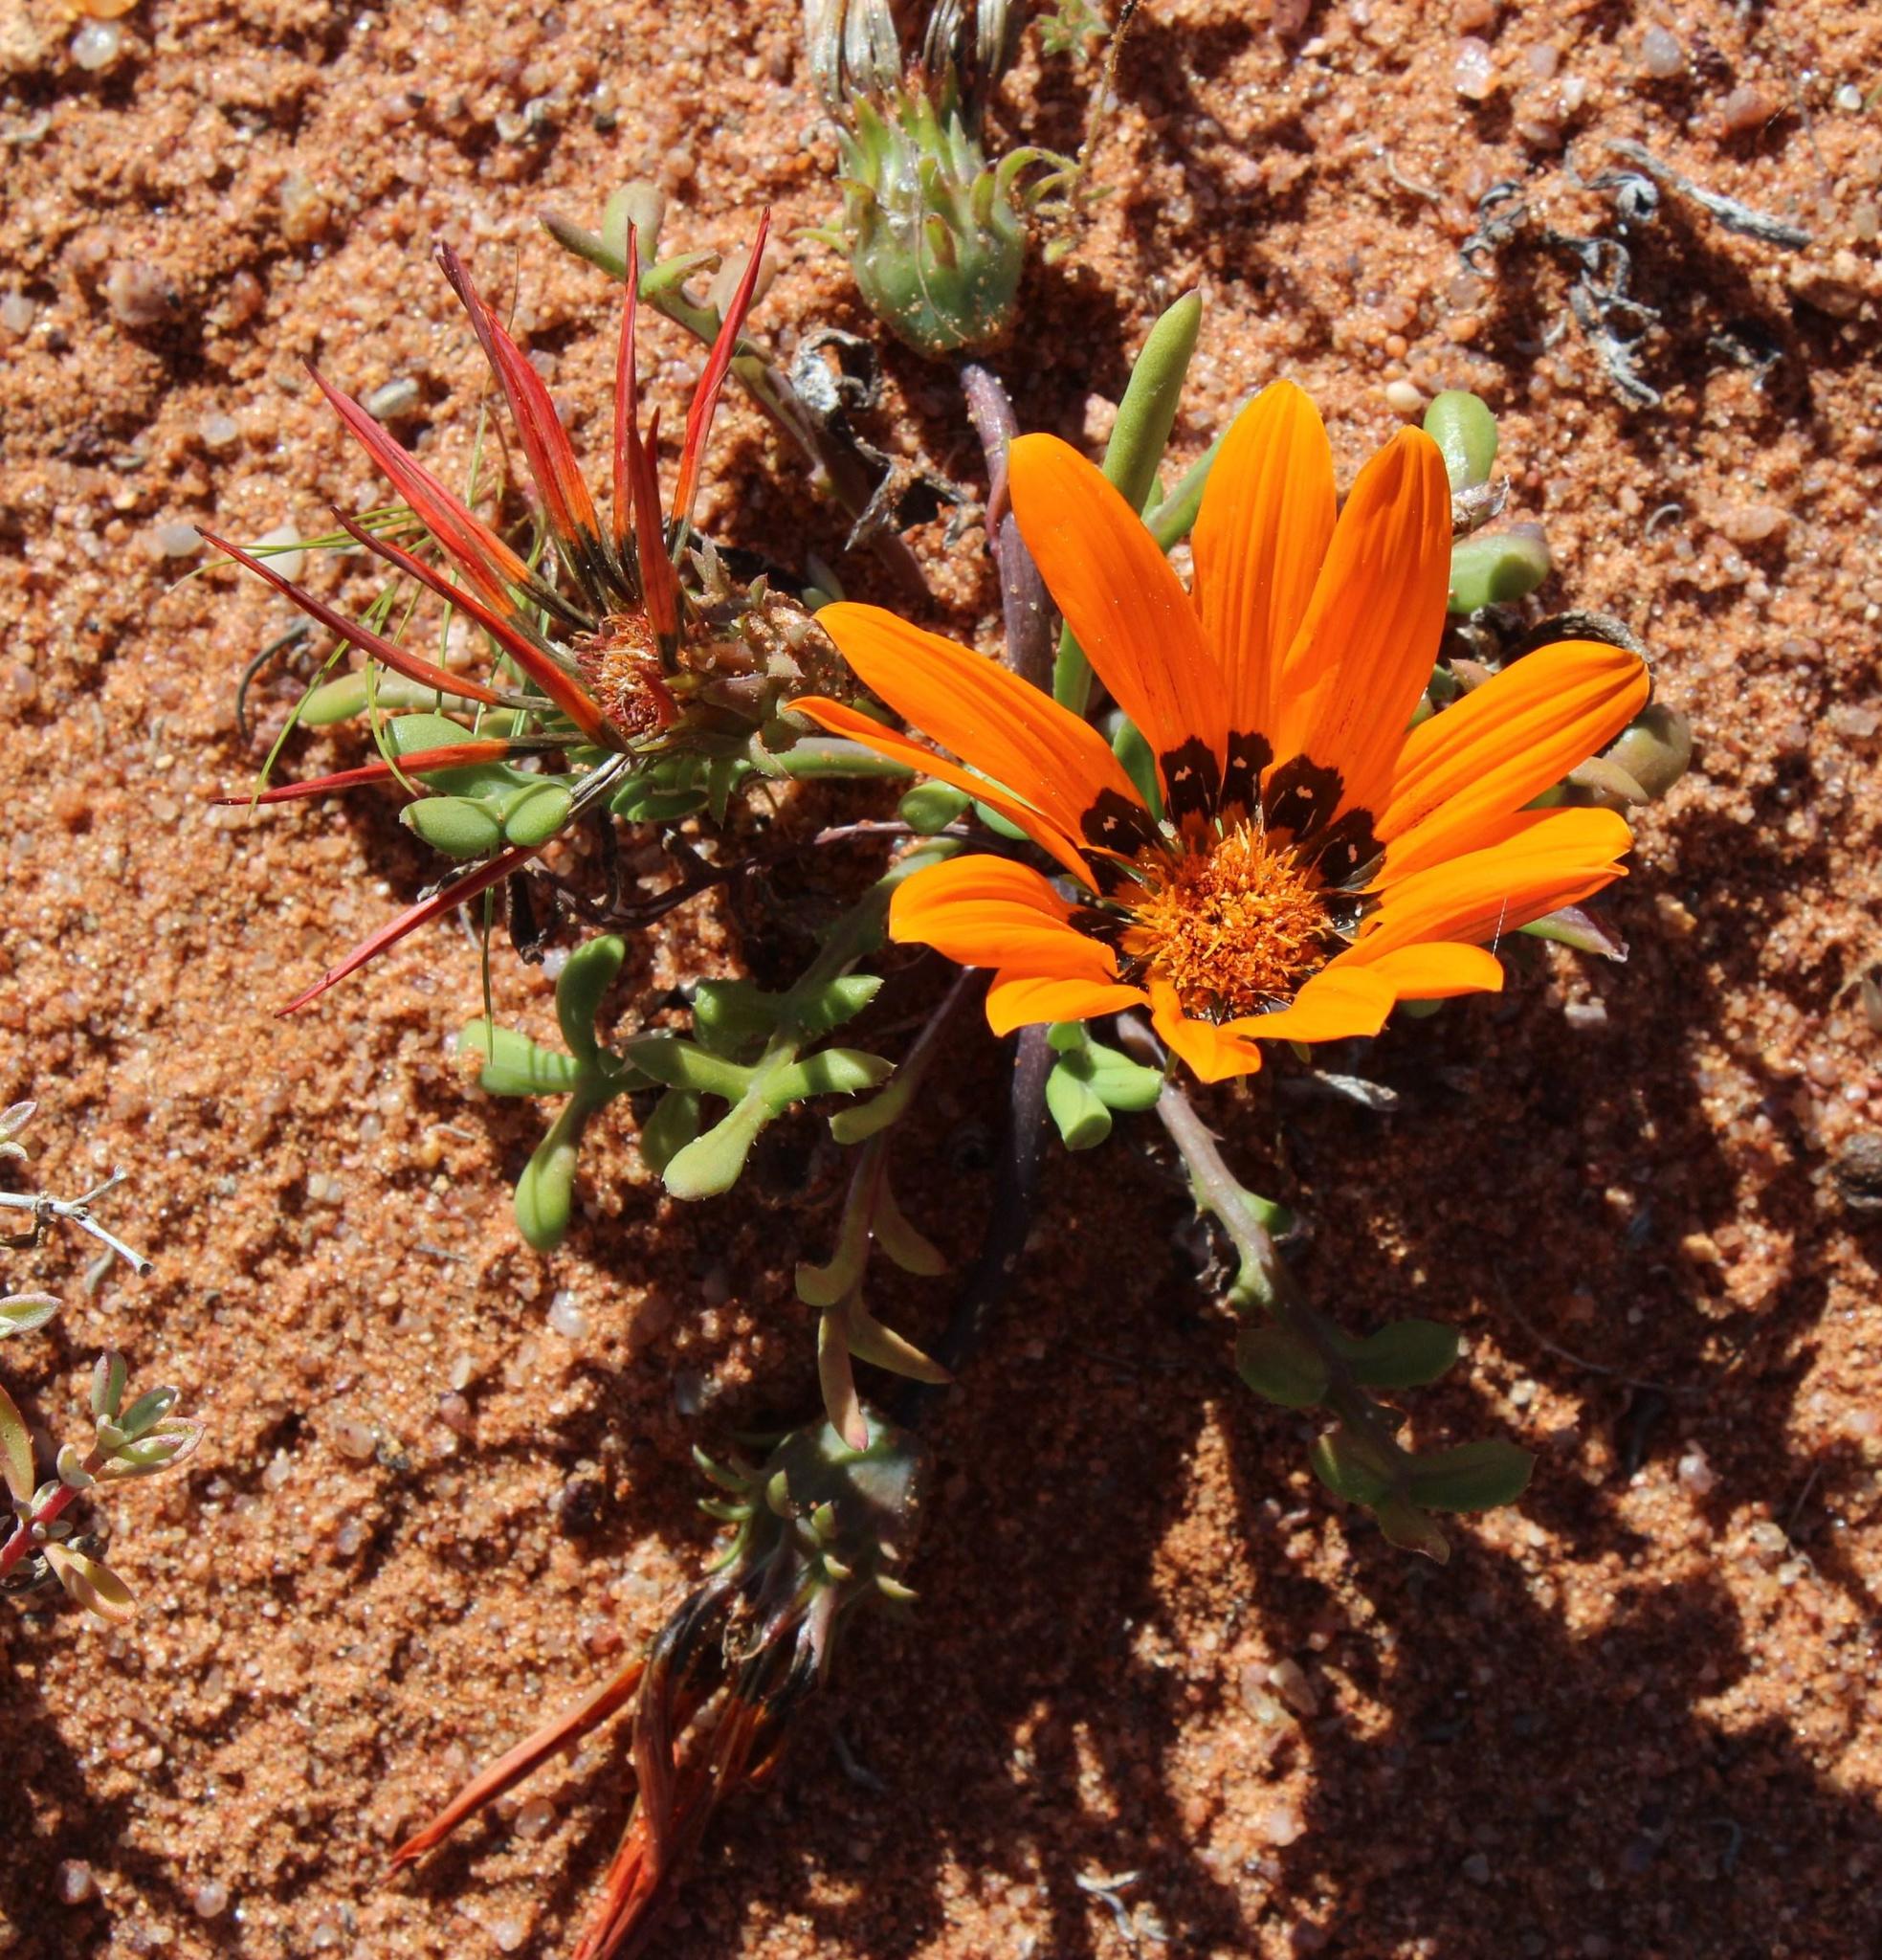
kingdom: Plantae
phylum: Tracheophyta
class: Magnoliopsida
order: Asterales
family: Asteraceae
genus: Gazania
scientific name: Gazania leiopoda
